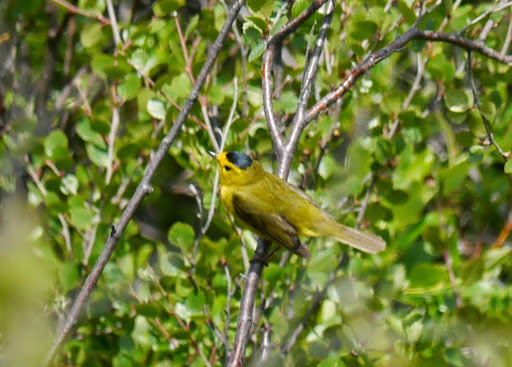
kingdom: Animalia
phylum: Chordata
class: Aves
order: Passeriformes
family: Parulidae
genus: Cardellina
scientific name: Cardellina pusilla
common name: Wilson's warbler
